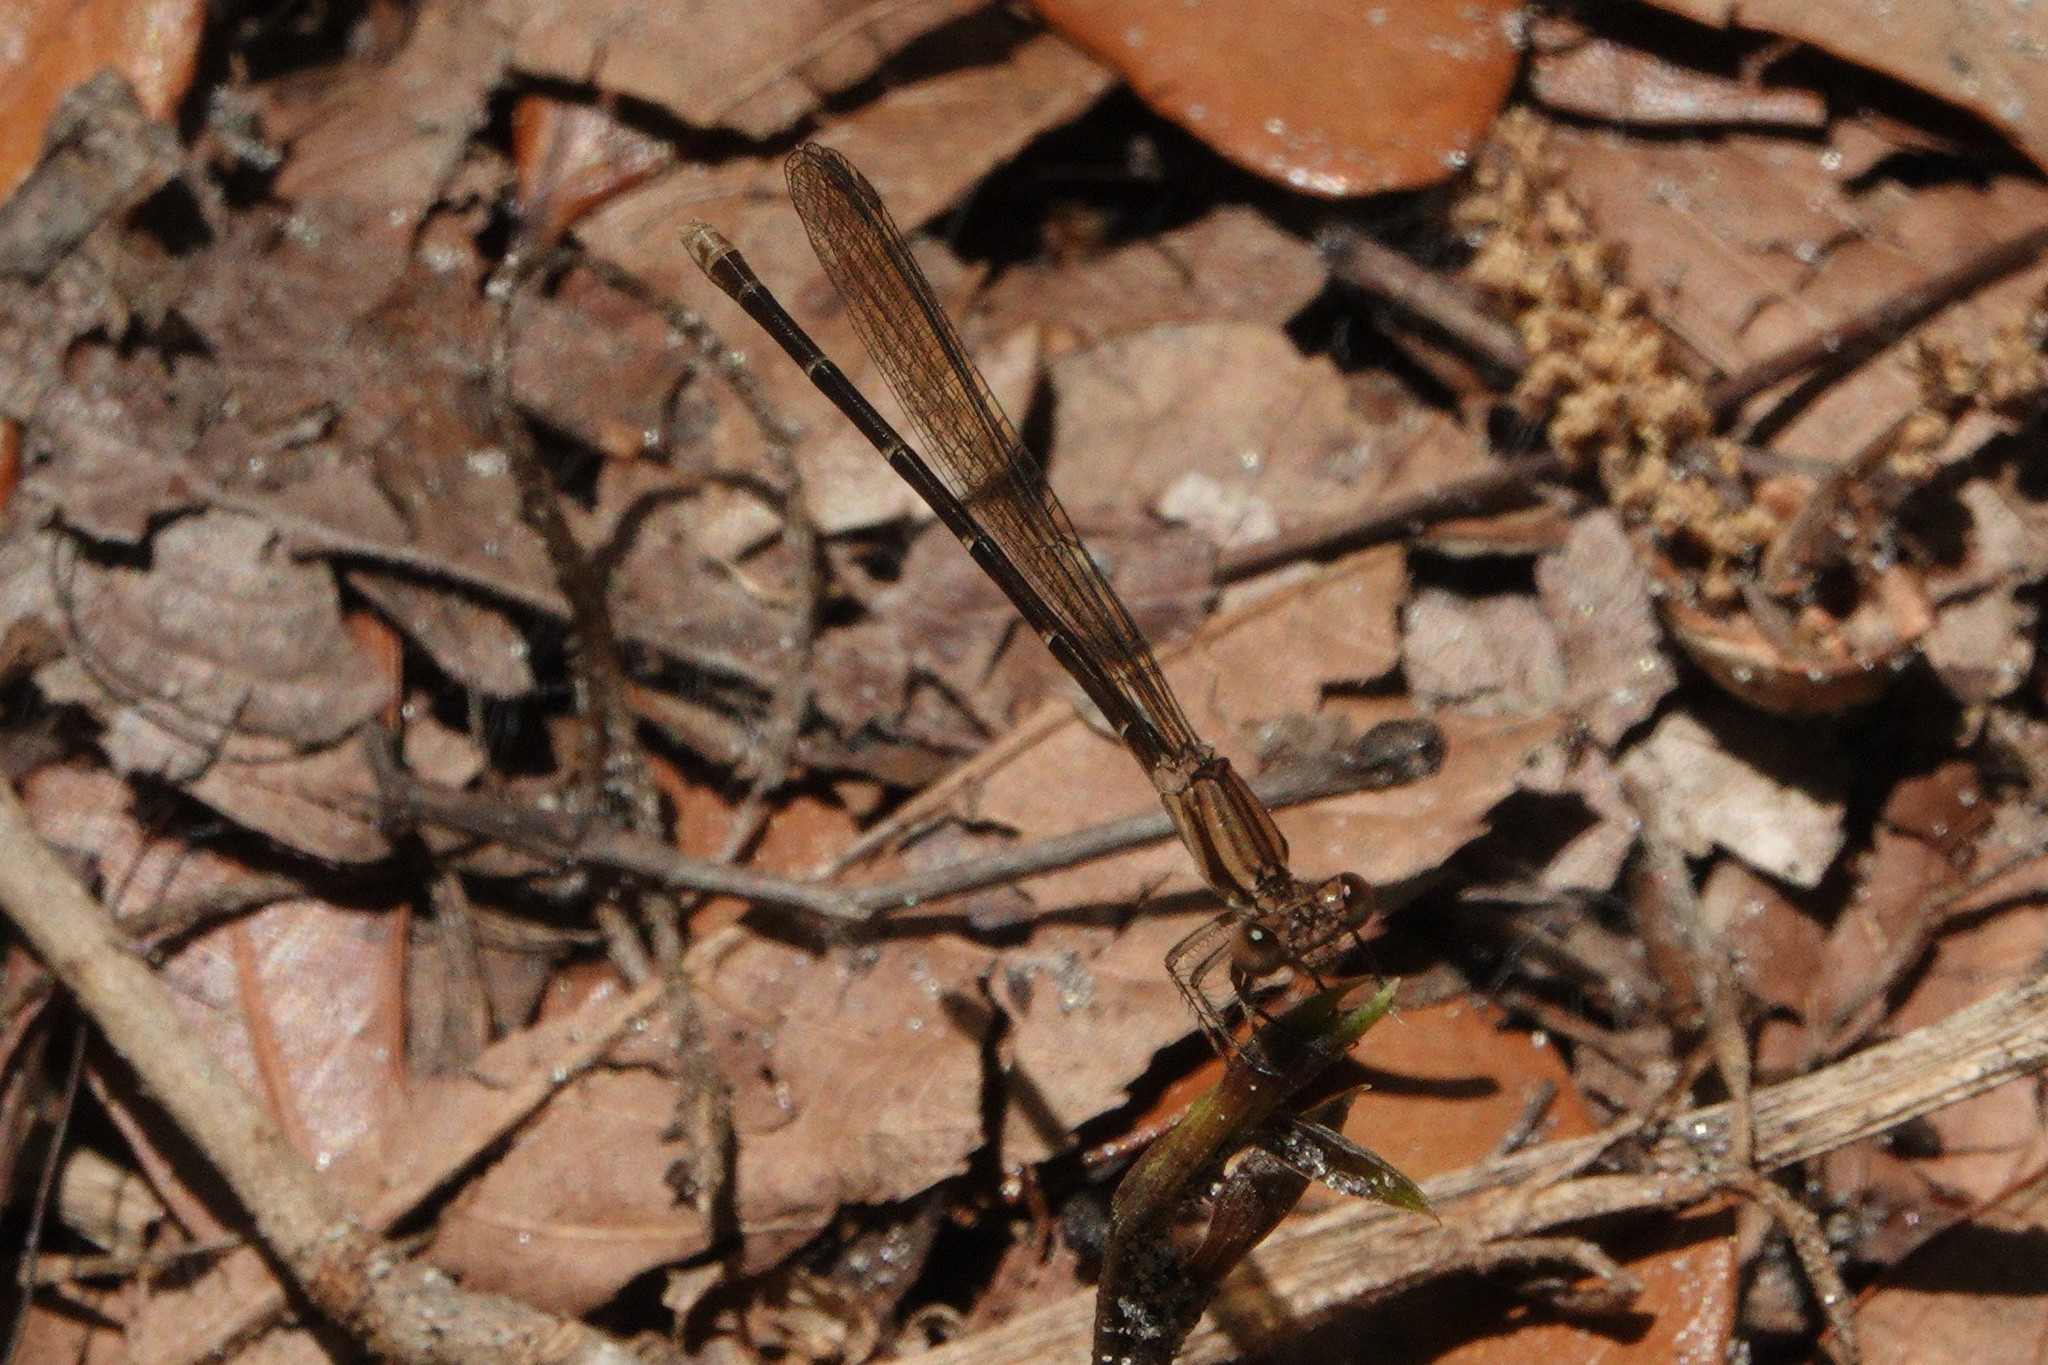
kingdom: Animalia
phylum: Arthropoda
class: Insecta
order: Odonata
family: Coenagrionidae
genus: Argia
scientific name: Argia sedula
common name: Blue-ringed dancer
